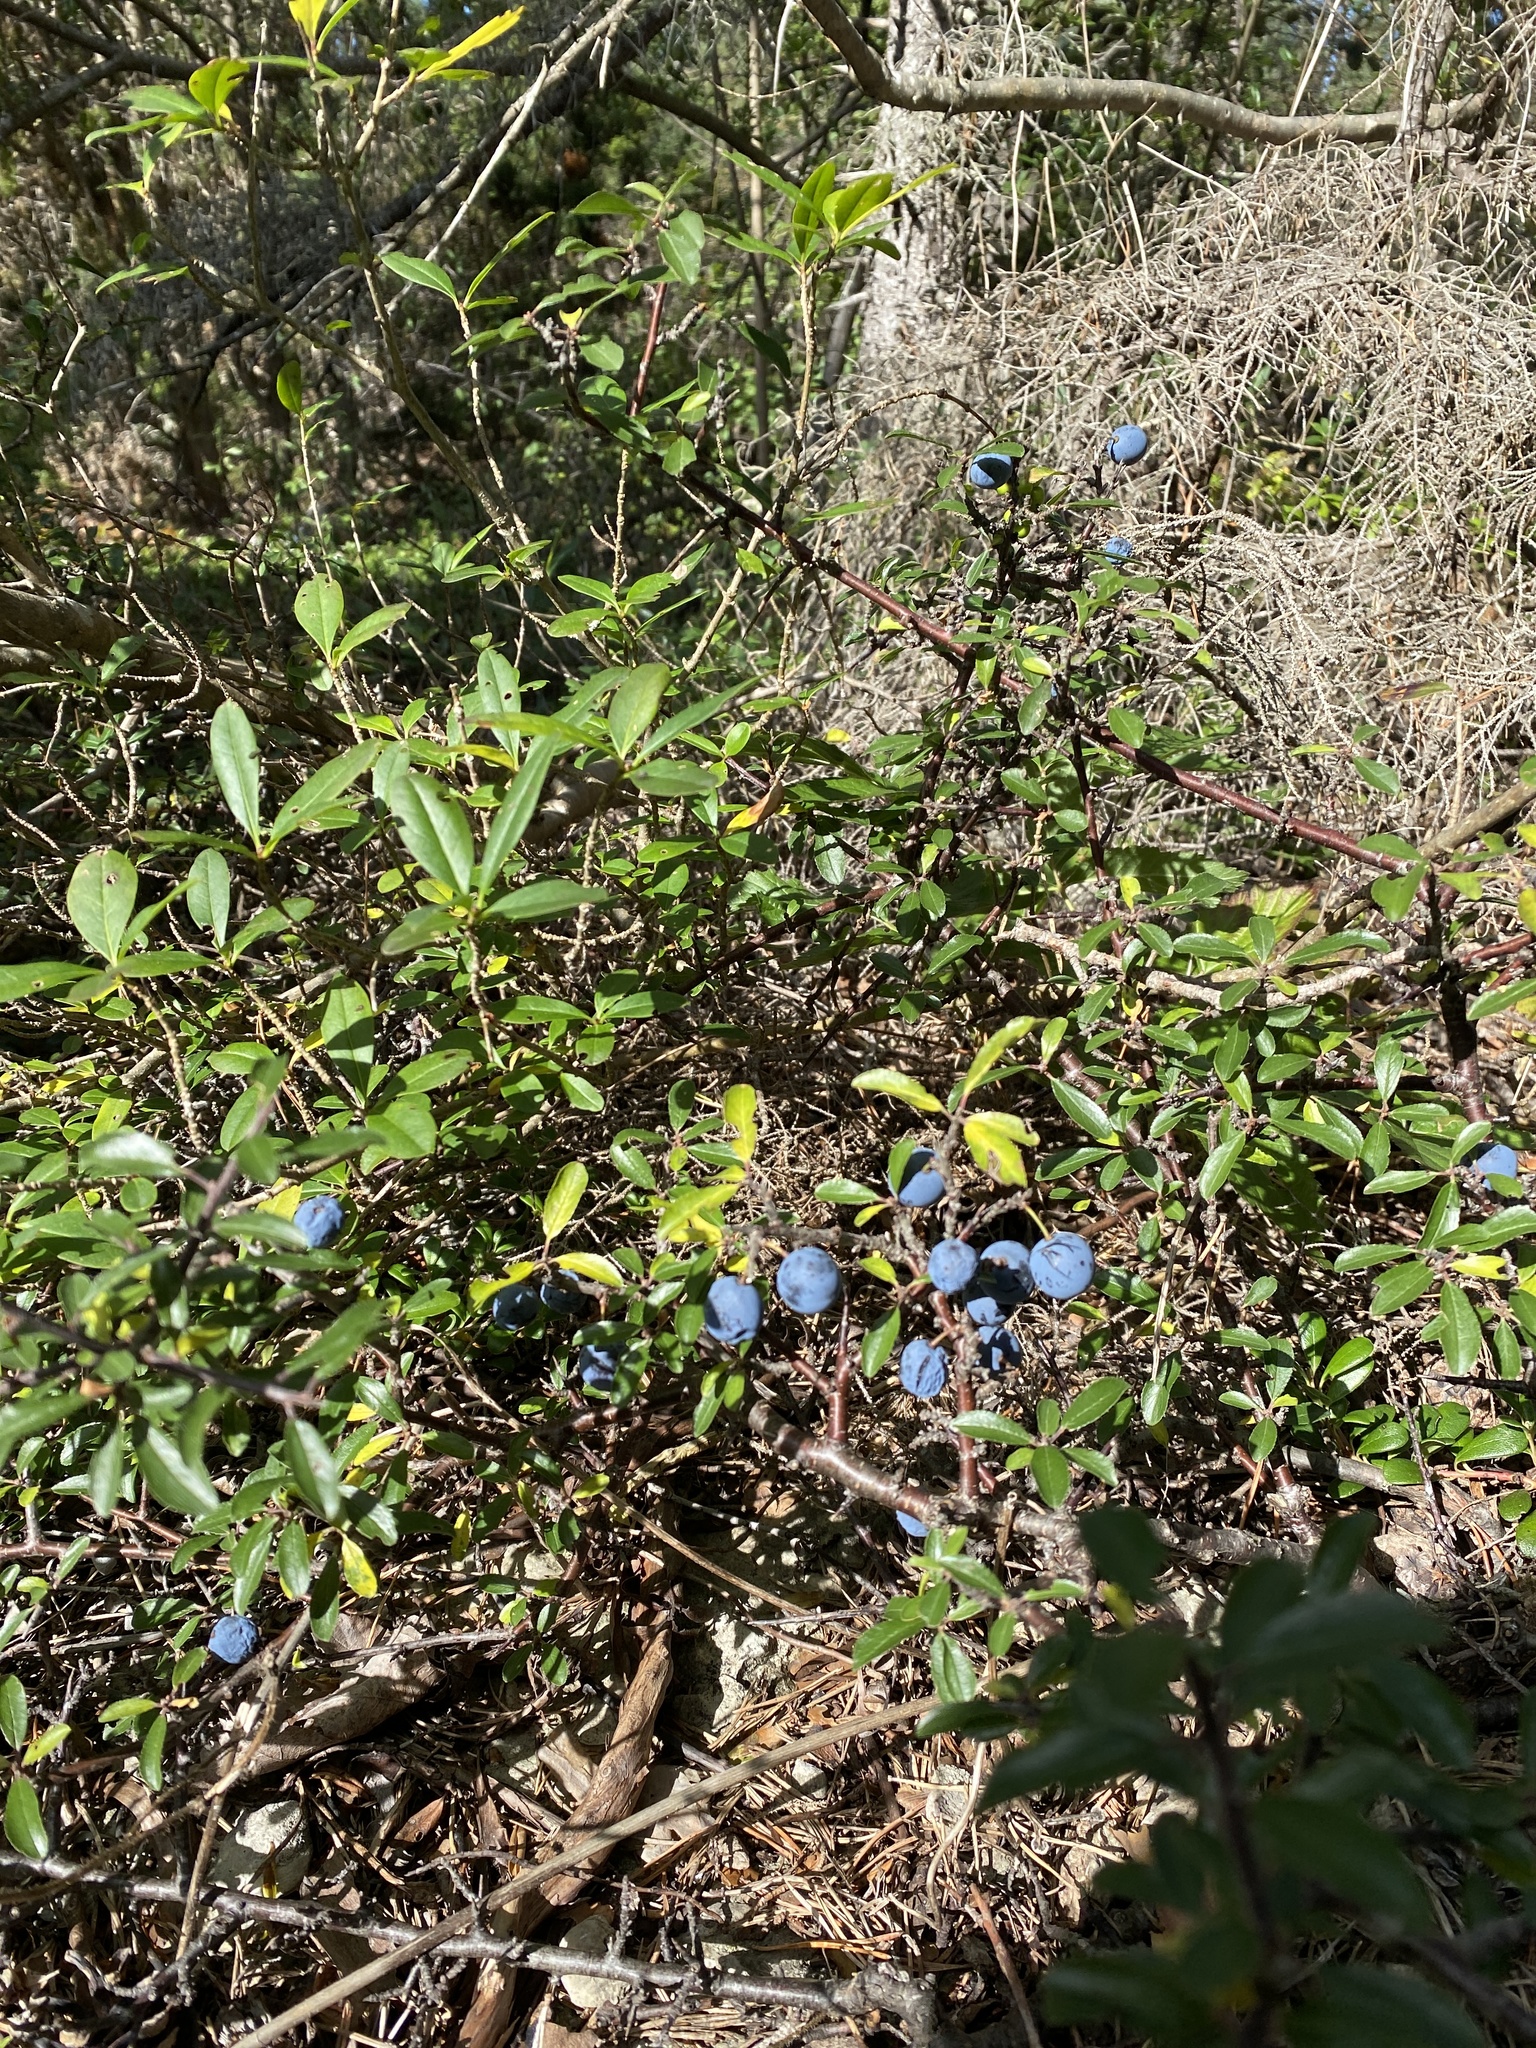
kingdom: Plantae
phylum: Tracheophyta
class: Magnoliopsida
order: Rosales
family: Rosaceae
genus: Prunus
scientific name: Prunus spinosa
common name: Blackthorn
